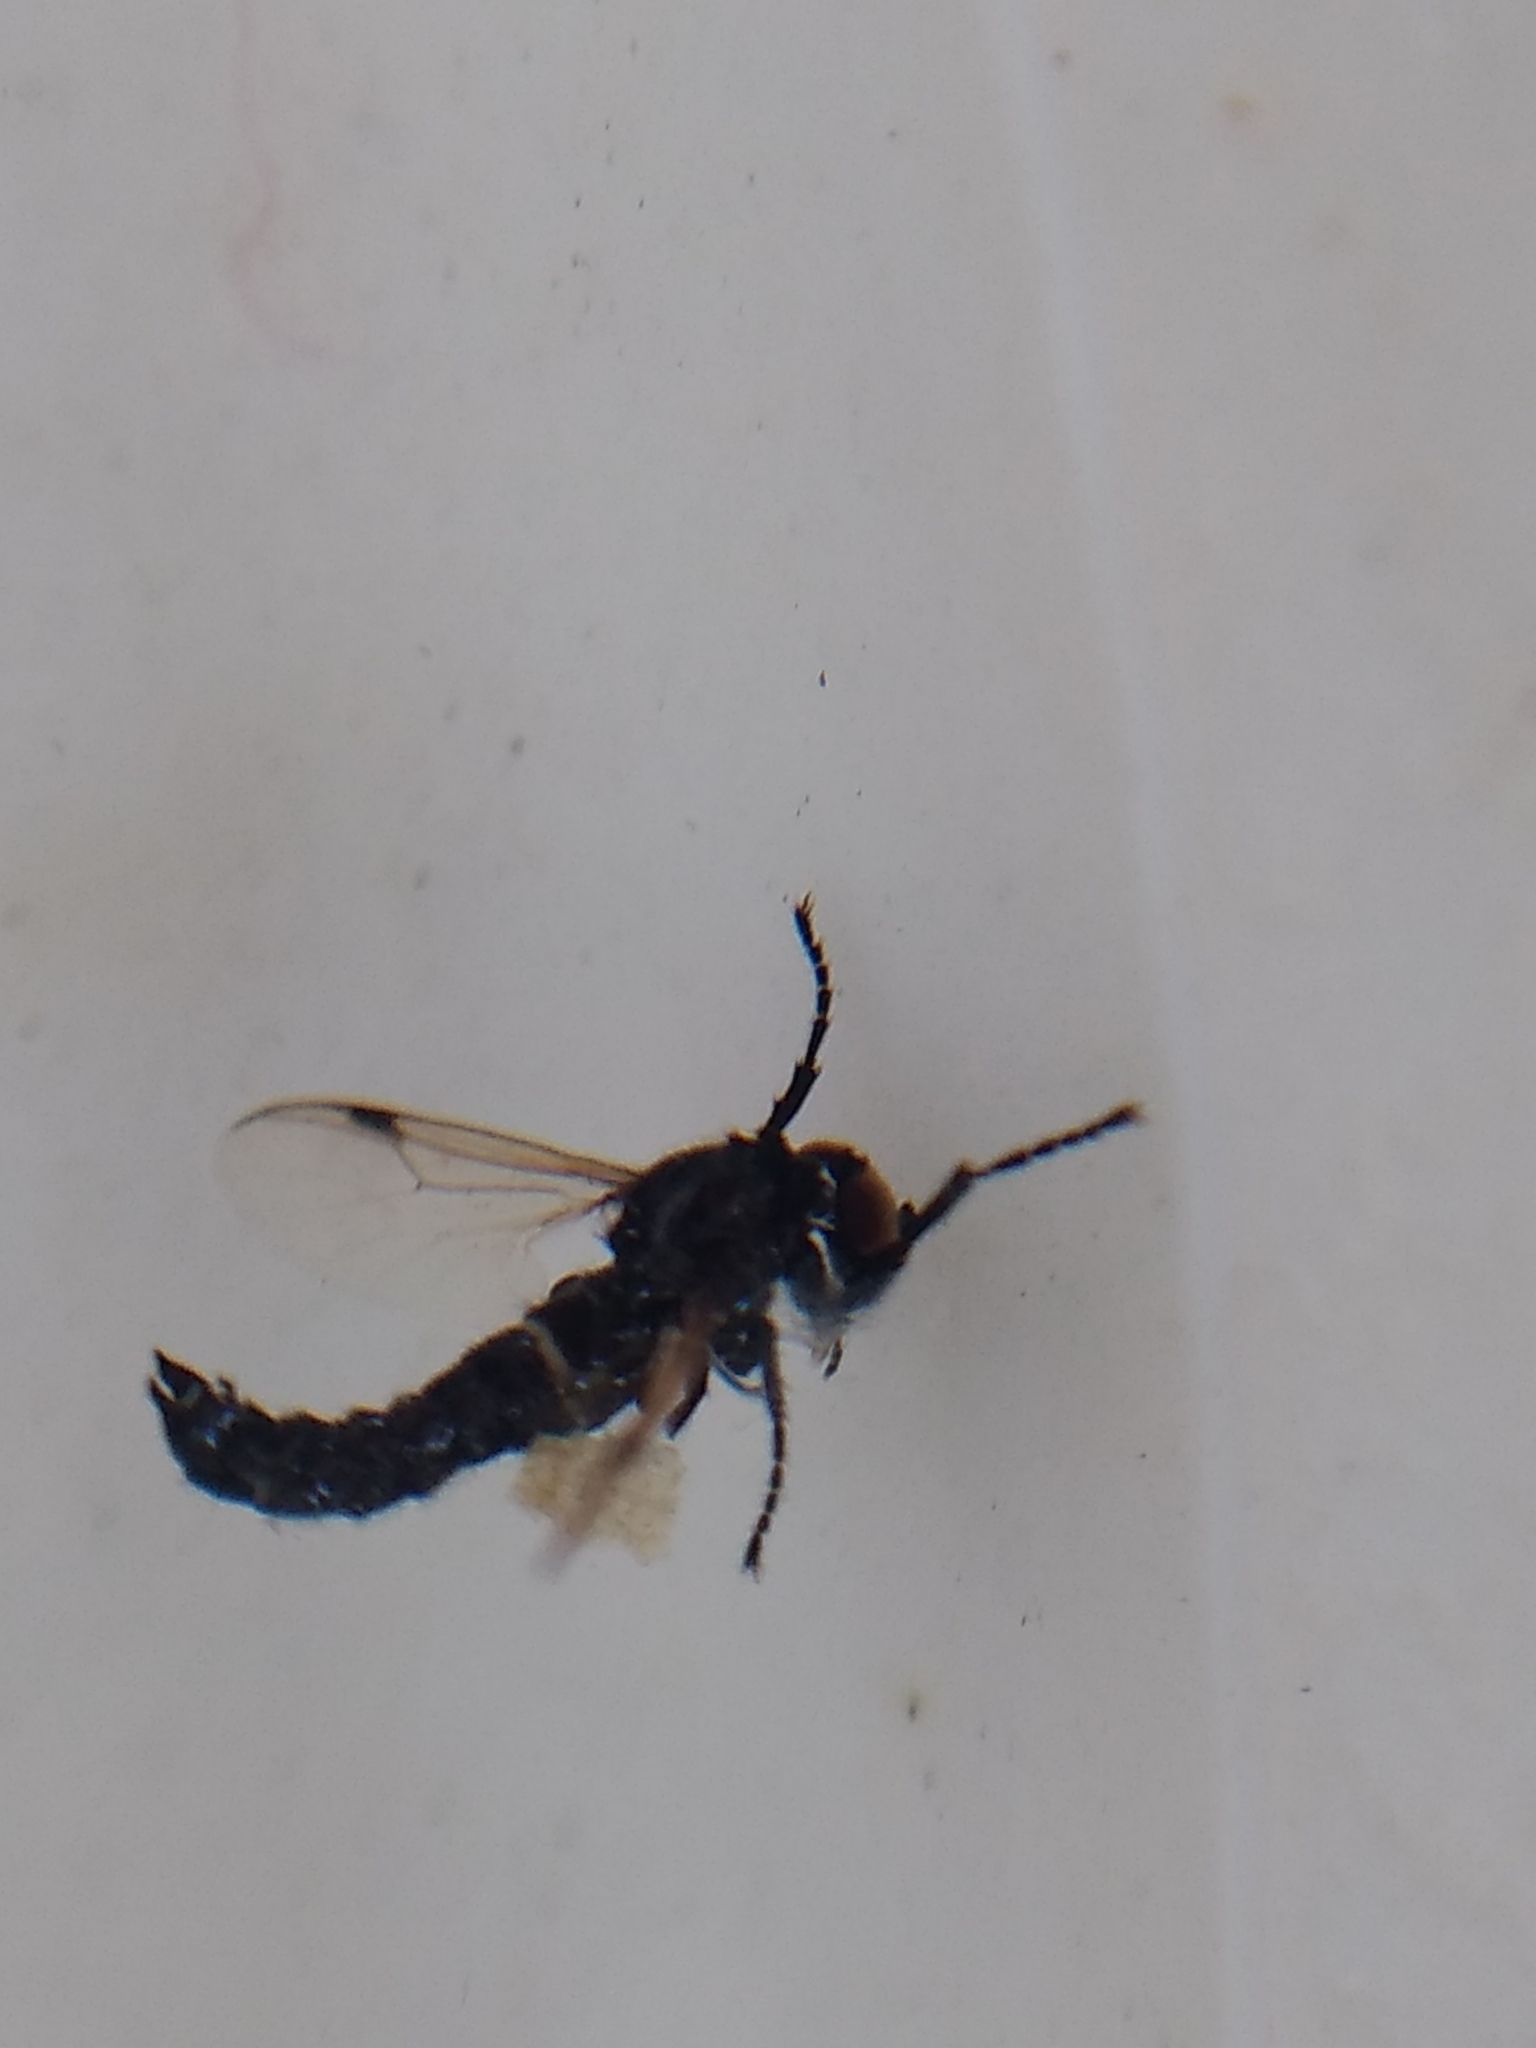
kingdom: Animalia
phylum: Arthropoda
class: Insecta
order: Diptera
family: Bibionidae
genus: Dilophus
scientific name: Dilophus
